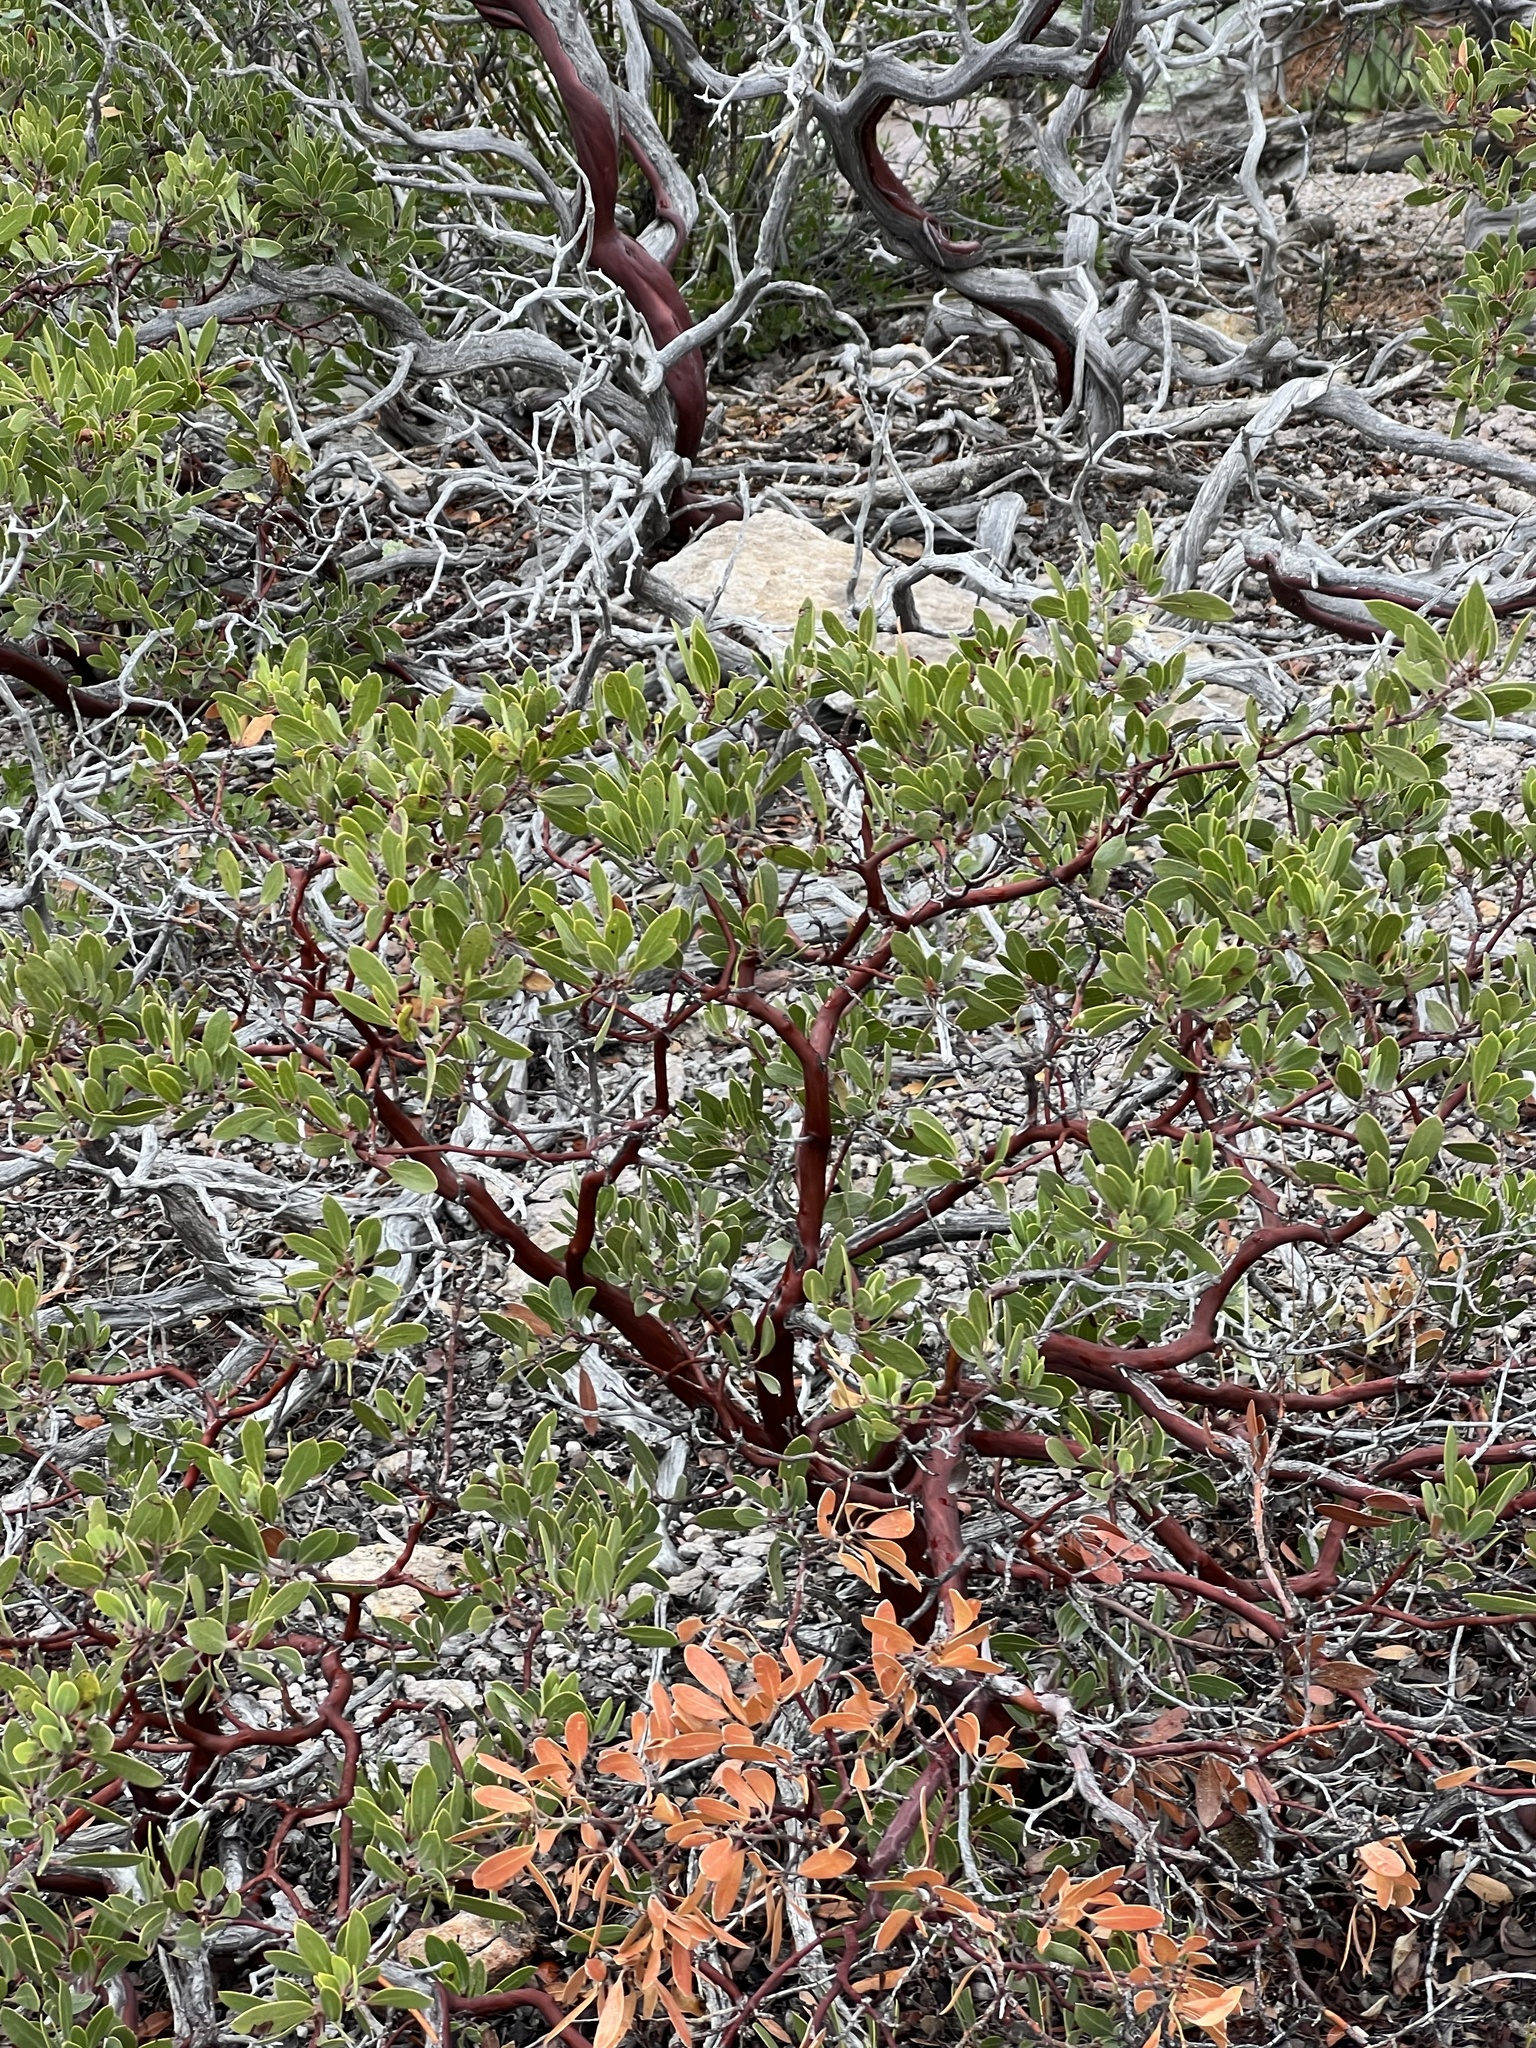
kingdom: Plantae
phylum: Tracheophyta
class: Magnoliopsida
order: Ericales
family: Ericaceae
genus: Arctostaphylos
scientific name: Arctostaphylos pungens
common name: Mexican manzanita
